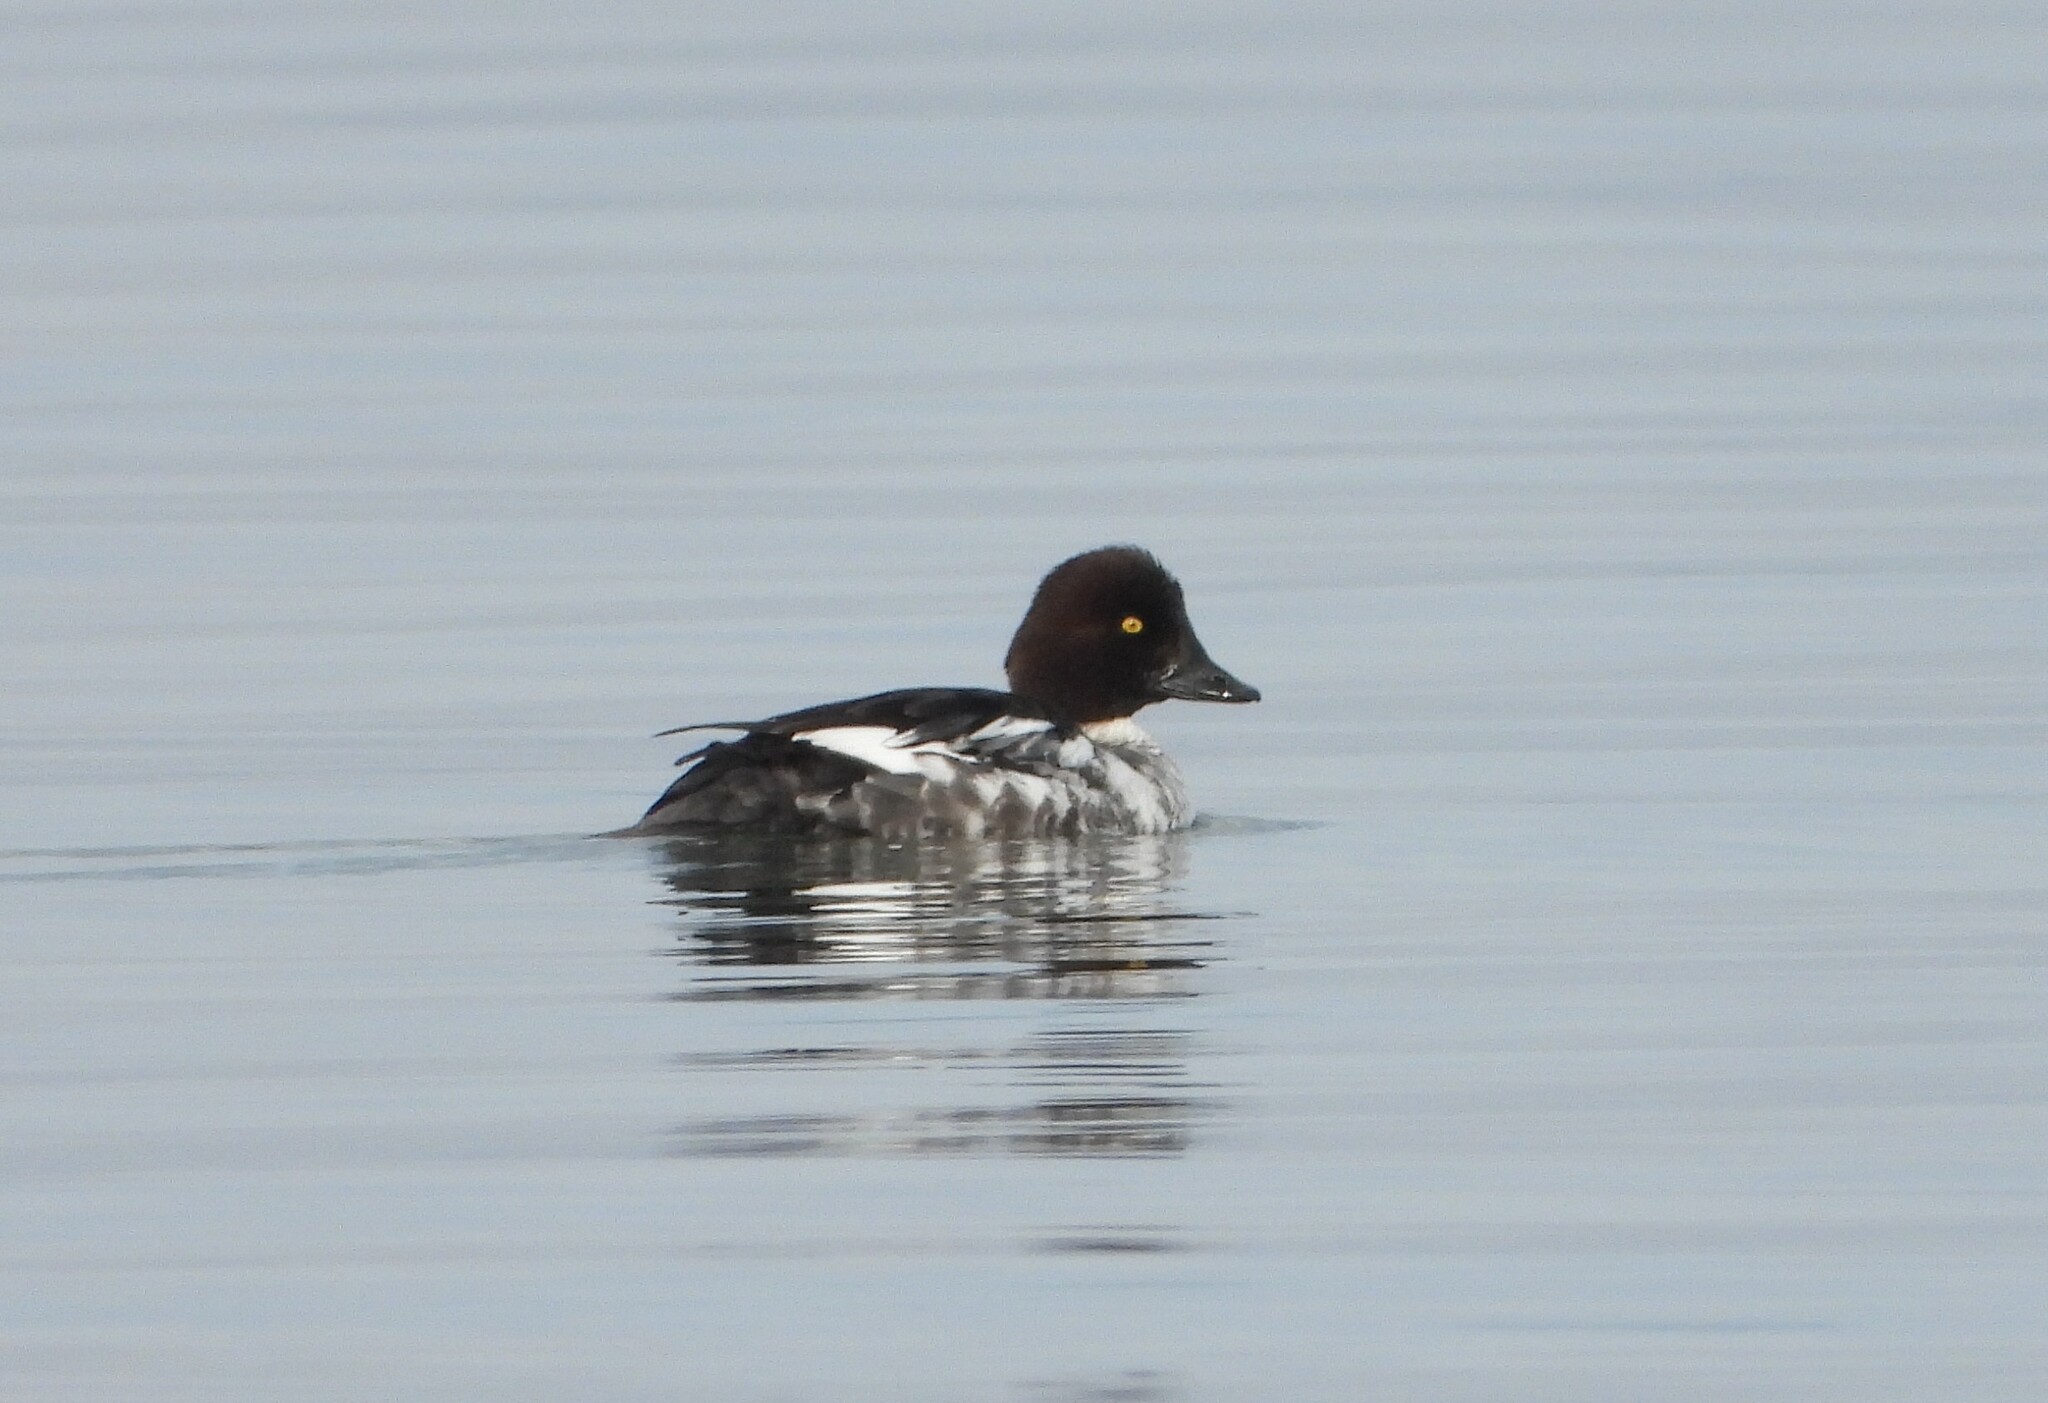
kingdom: Animalia
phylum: Chordata
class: Aves
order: Anseriformes
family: Anatidae
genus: Bucephala
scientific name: Bucephala clangula
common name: Common goldeneye
